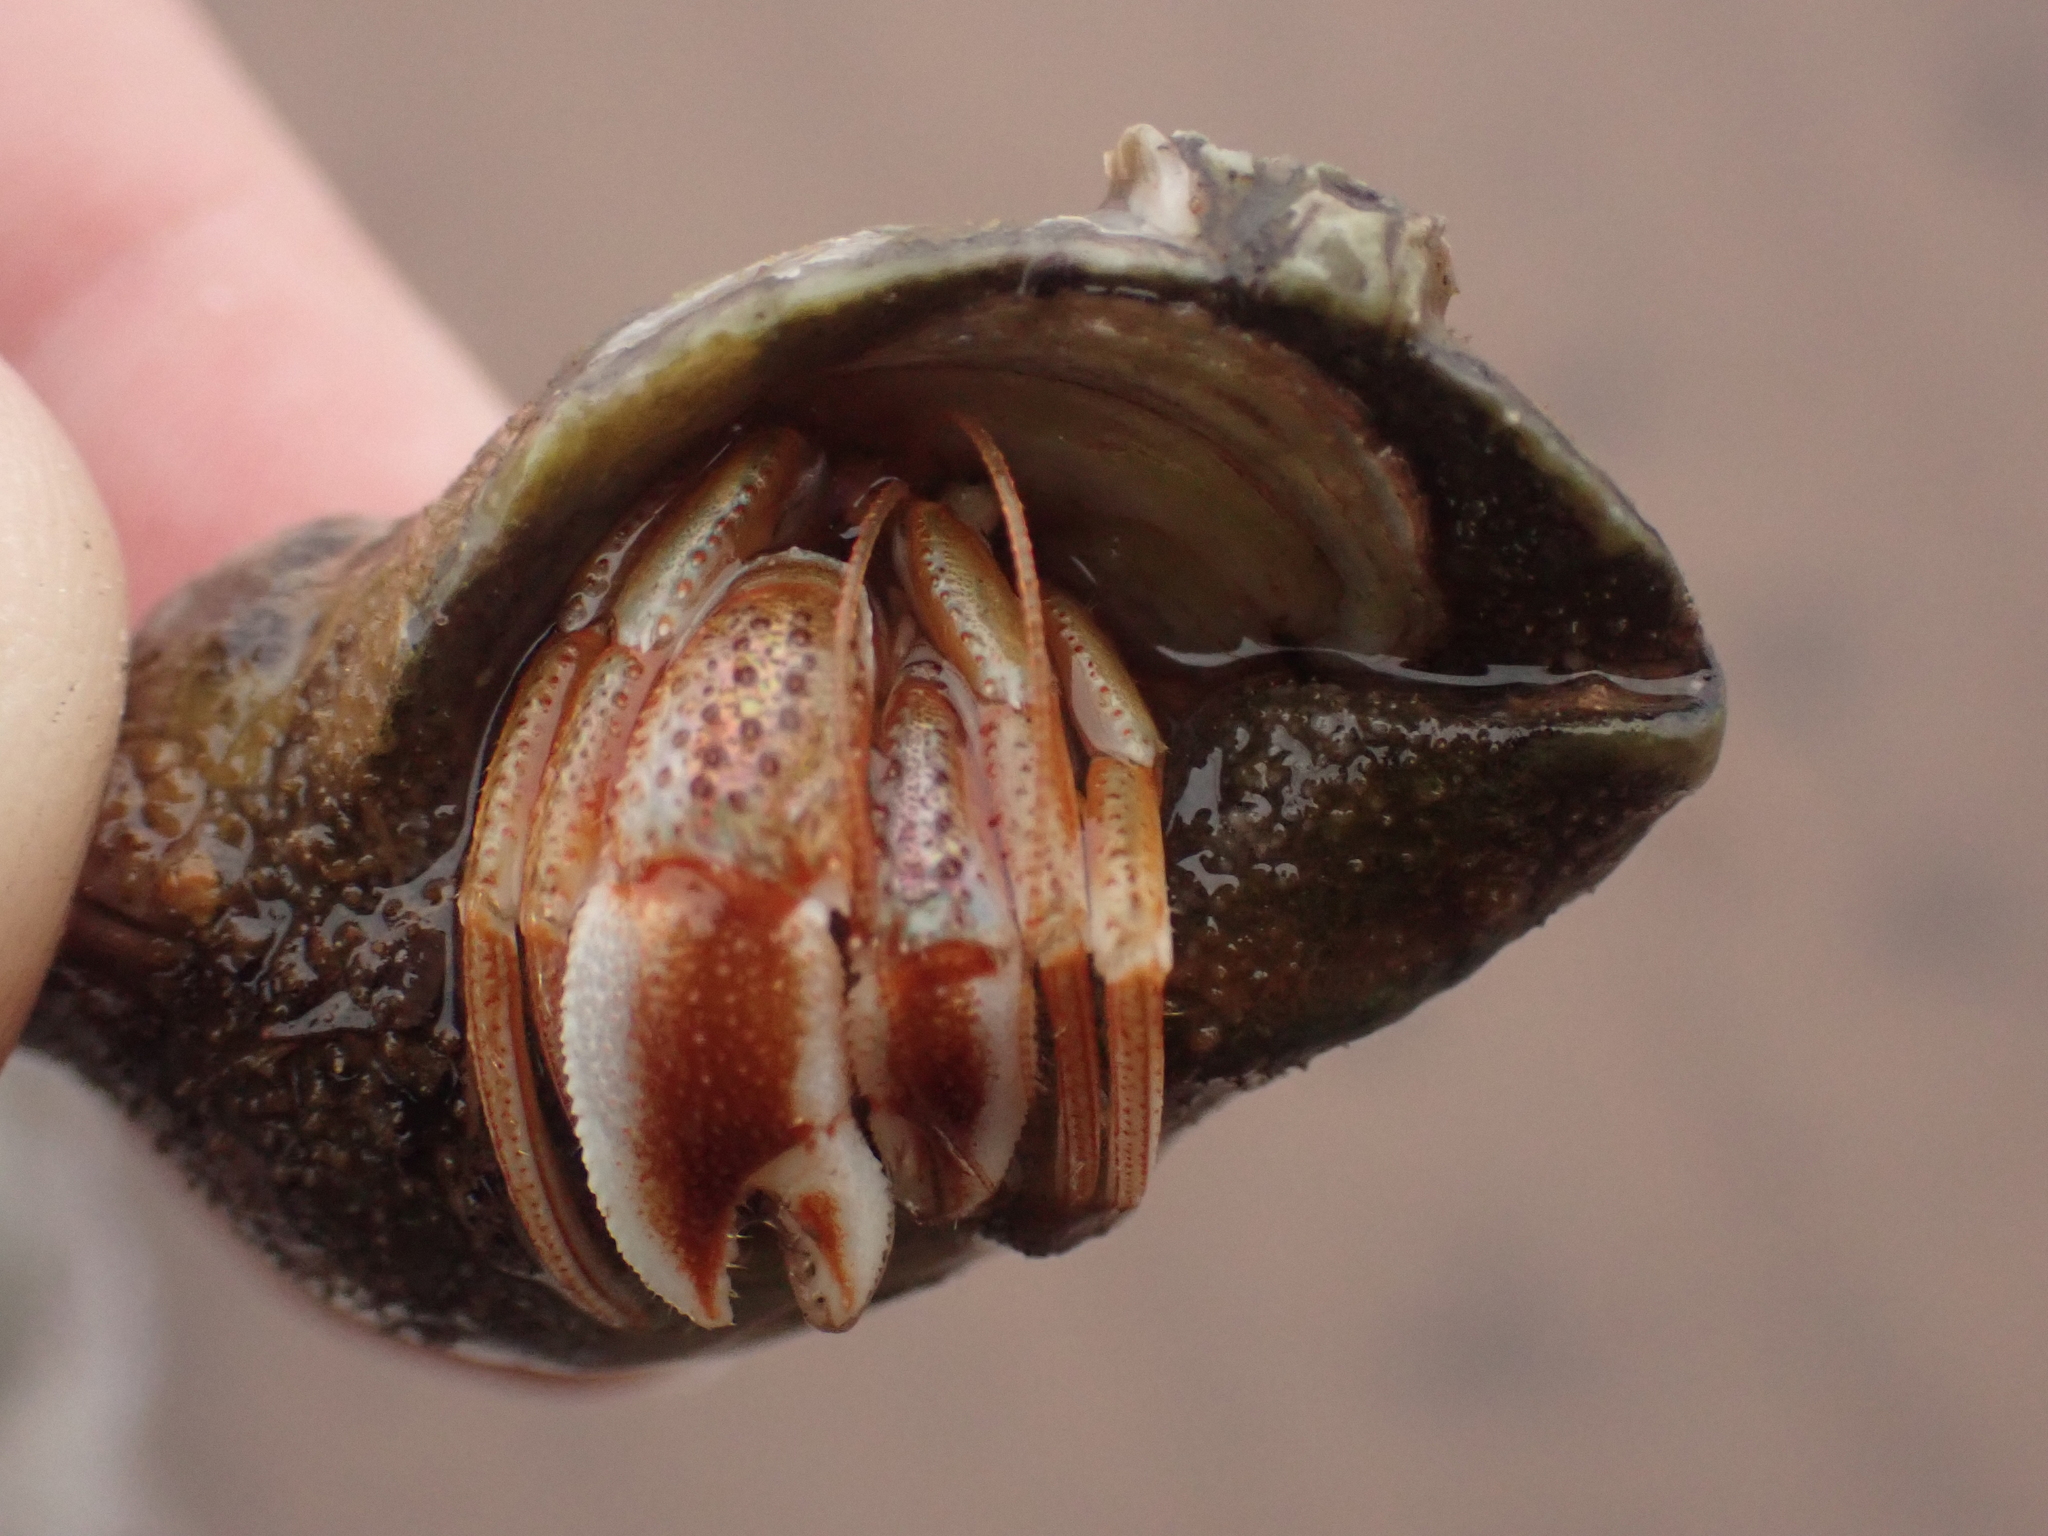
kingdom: Animalia
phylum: Arthropoda
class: Malacostraca
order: Decapoda
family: Paguridae
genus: Pagurus
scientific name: Pagurus acadianus
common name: Acadian hermit crab
